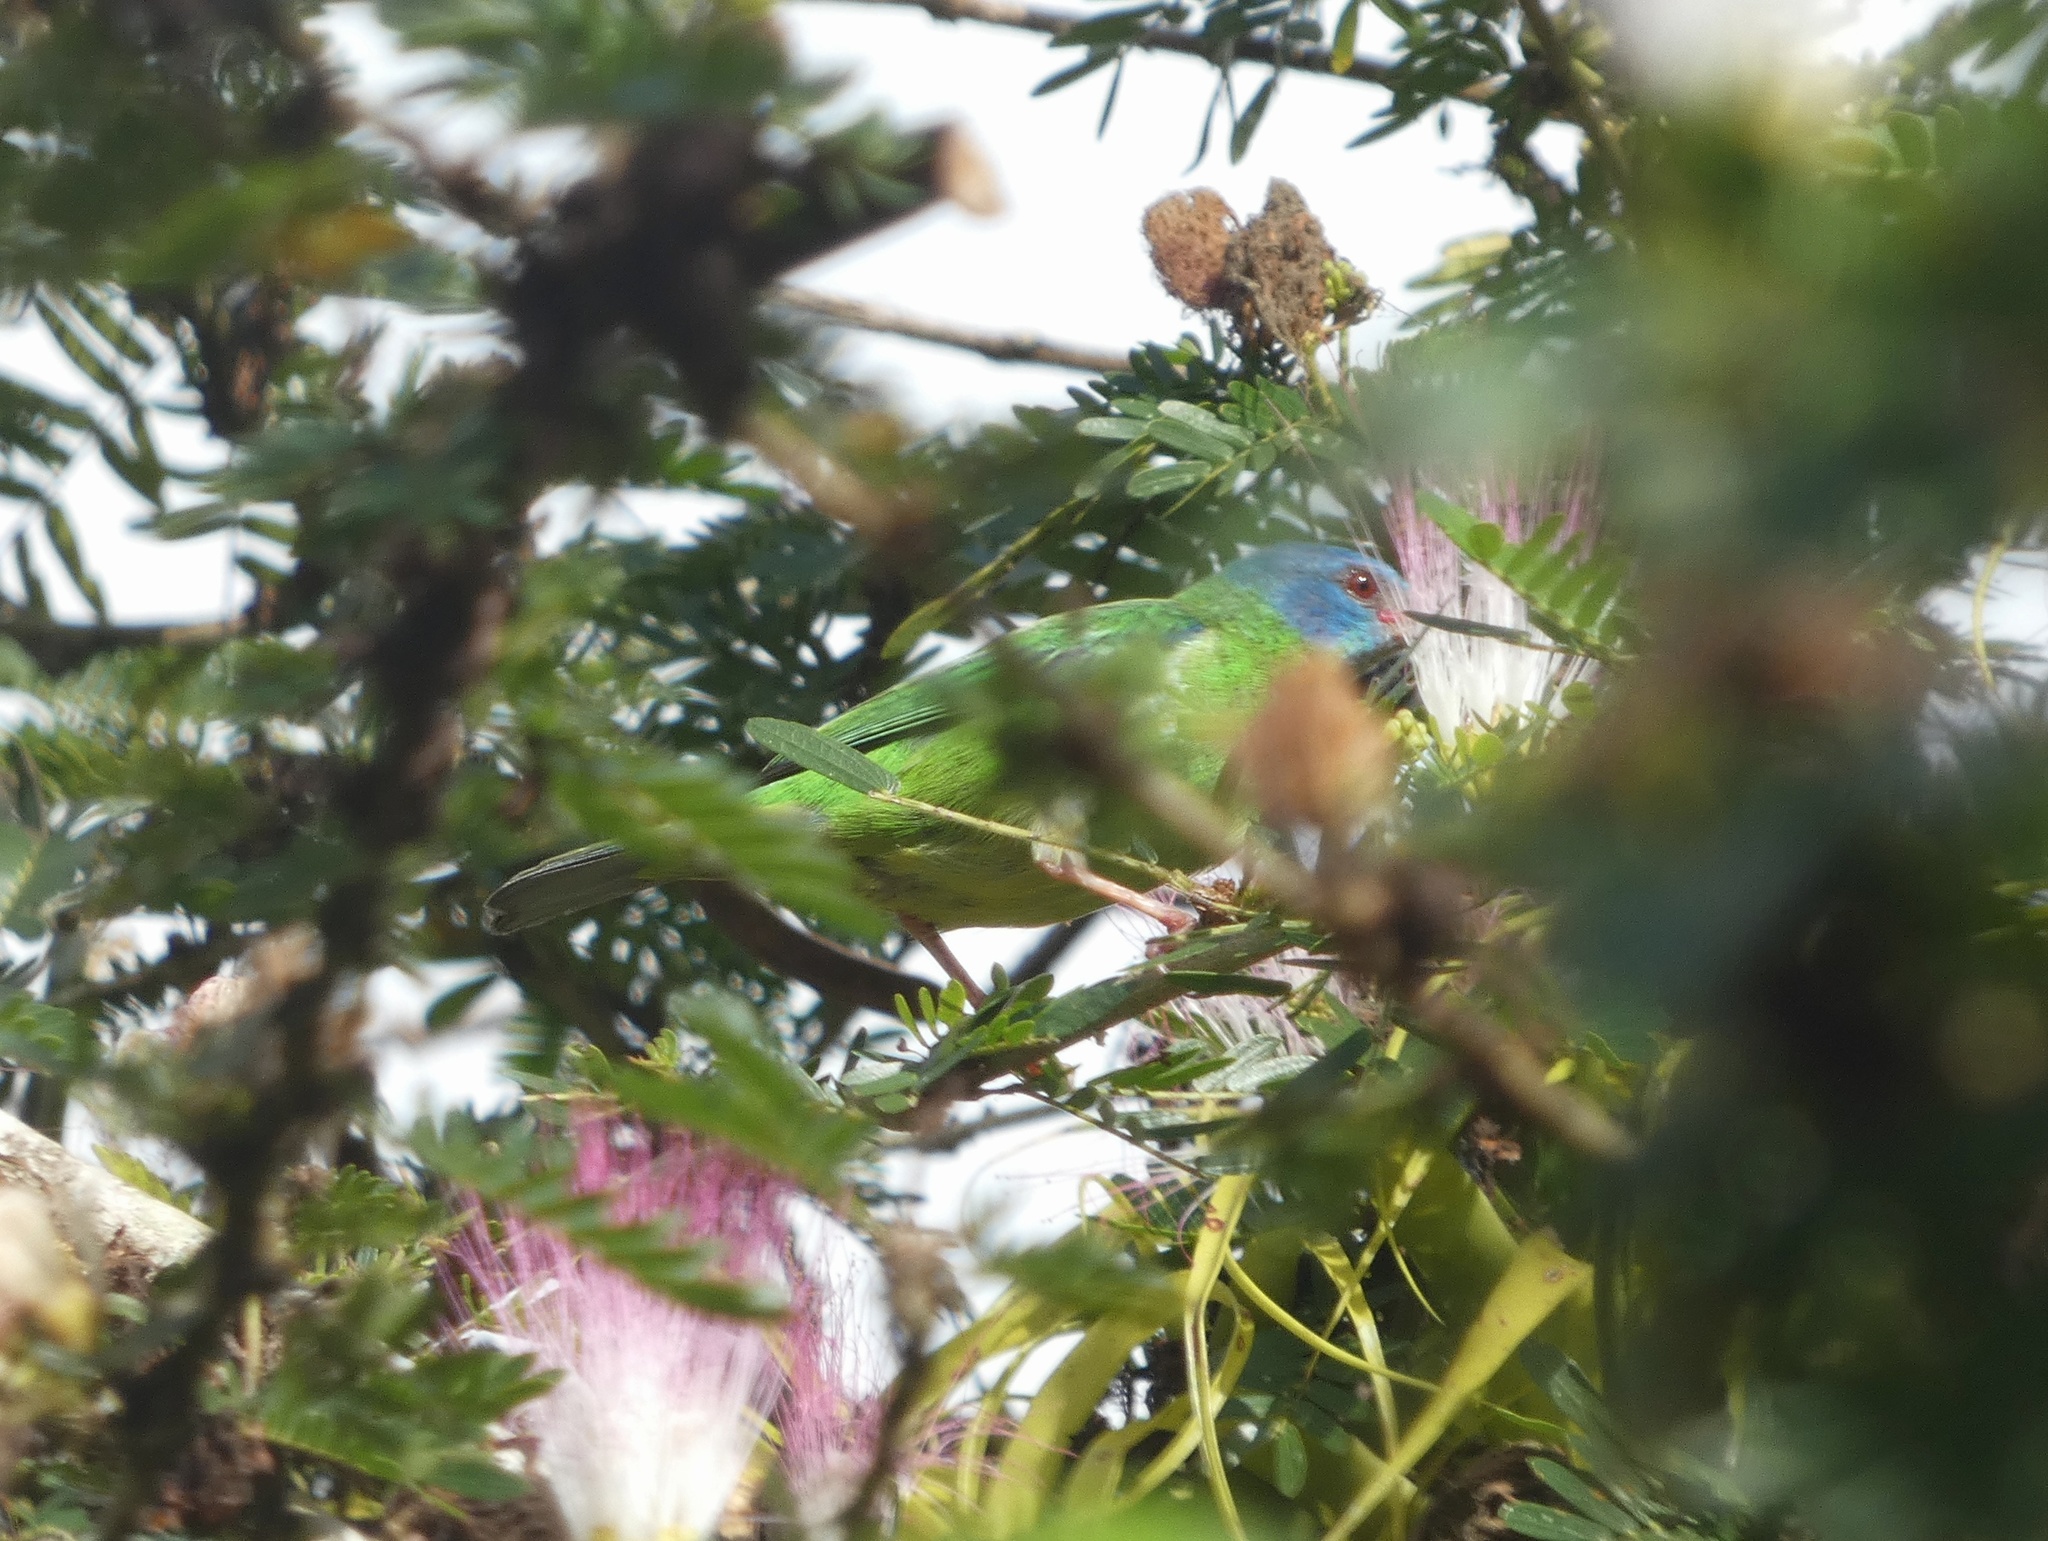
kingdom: Animalia
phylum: Chordata
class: Aves
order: Passeriformes
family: Thraupidae
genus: Dacnis
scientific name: Dacnis cayana
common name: Blue dacnis
